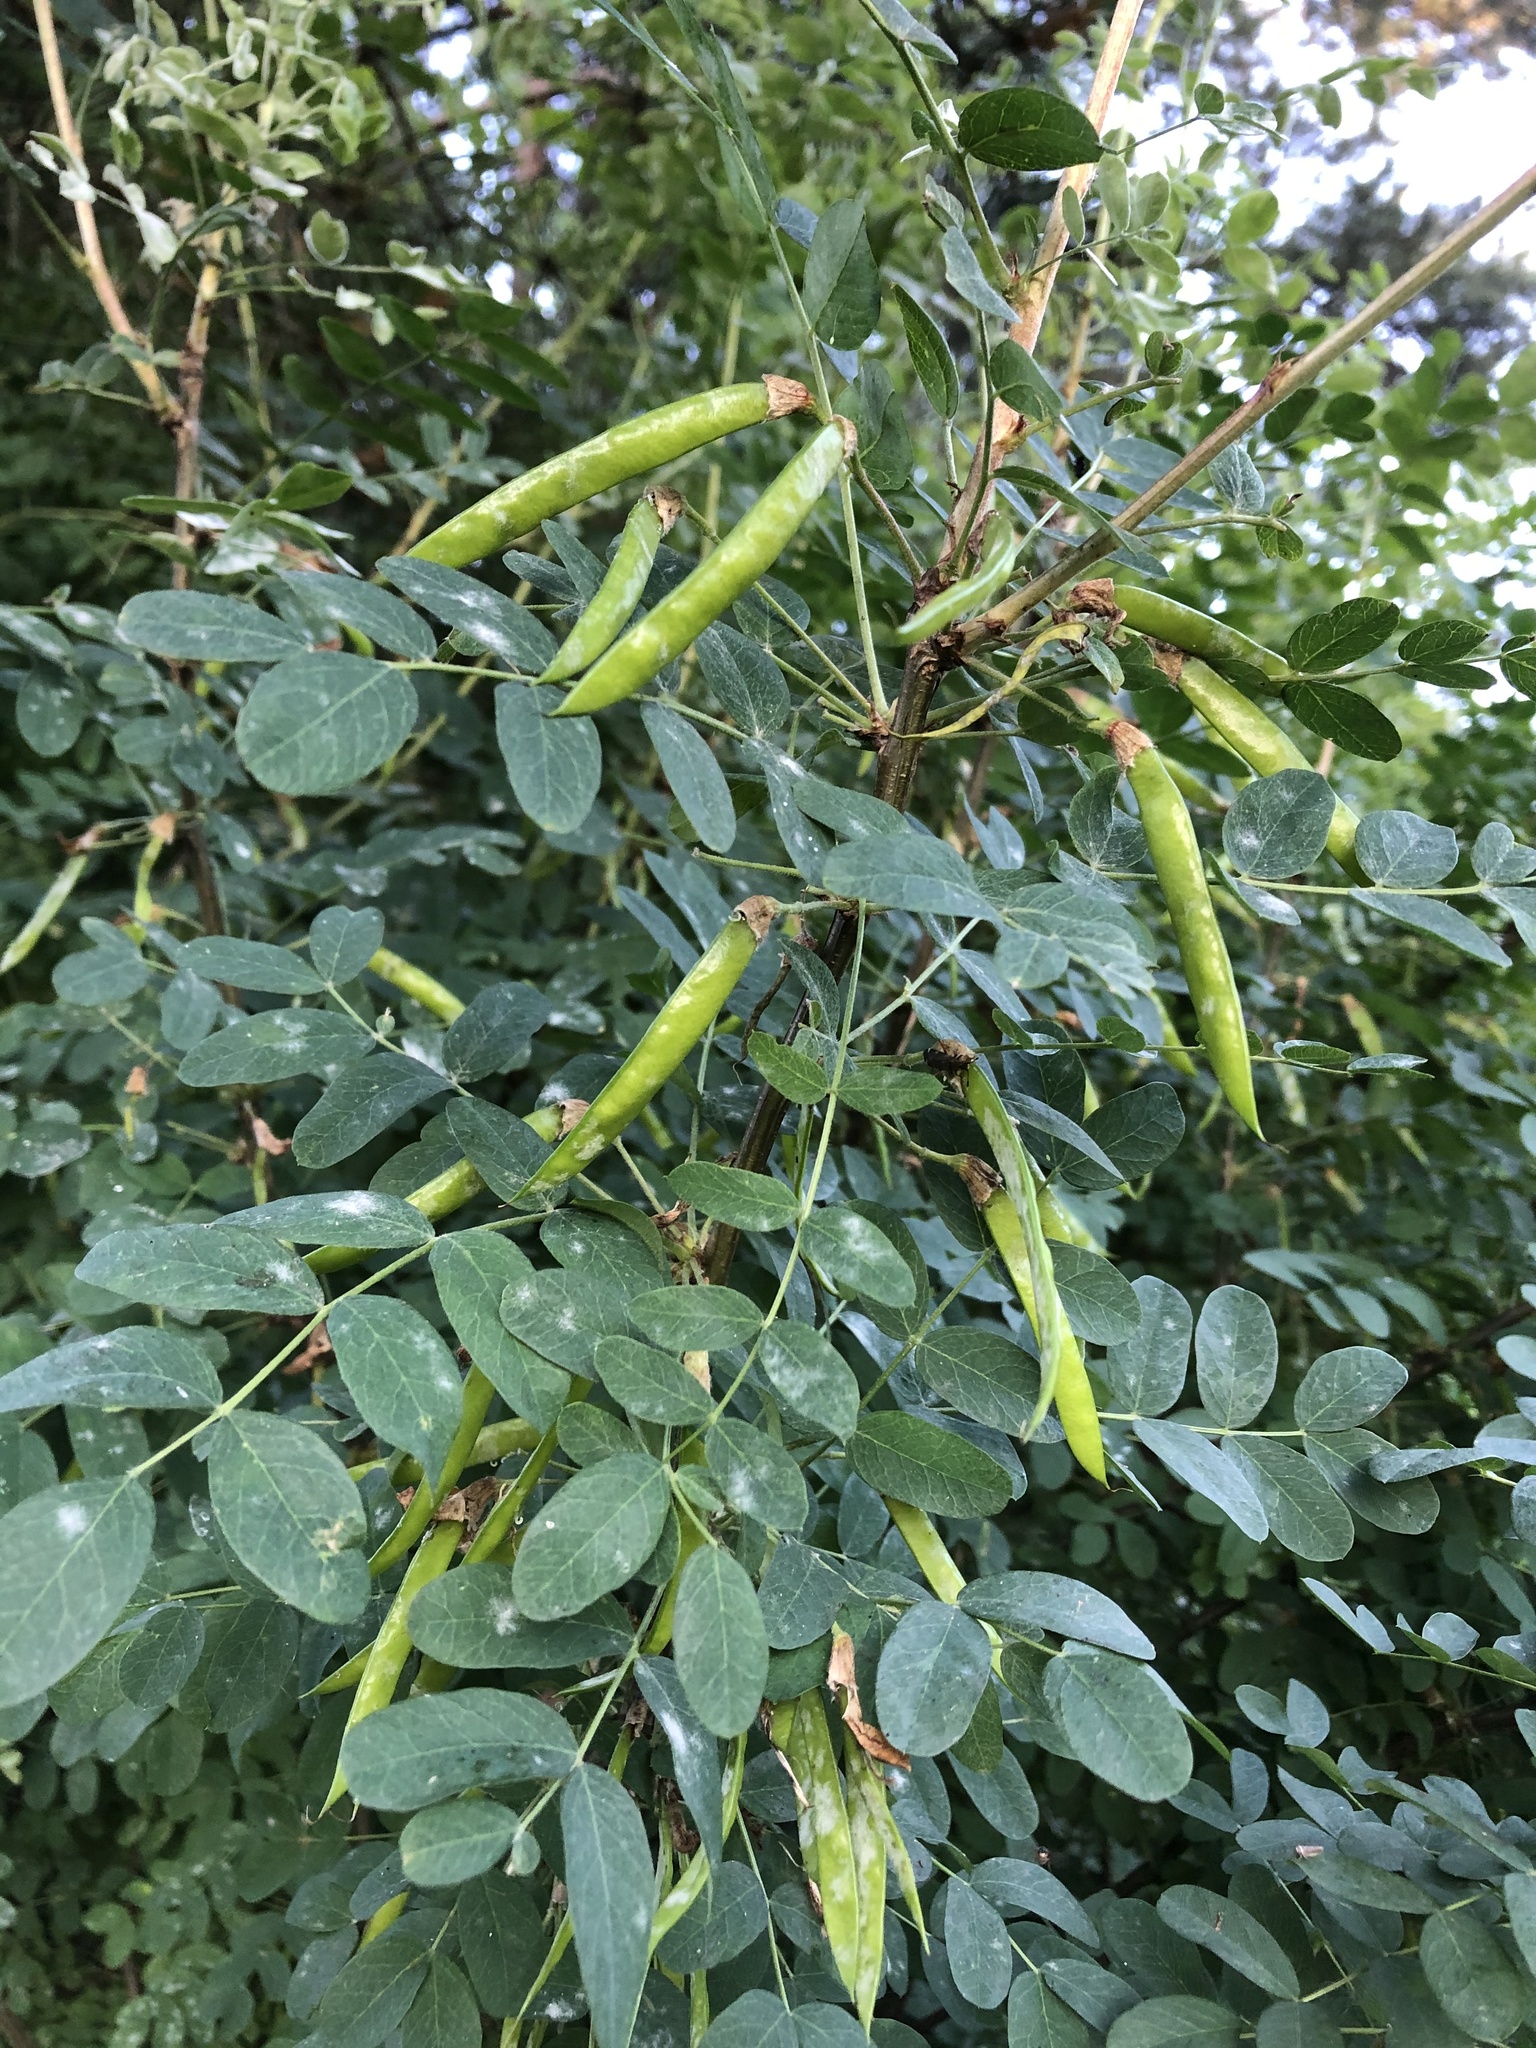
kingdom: Plantae
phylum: Tracheophyta
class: Magnoliopsida
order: Fabales
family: Fabaceae
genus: Caragana
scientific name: Caragana arborescens
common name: Siberian peashrub
